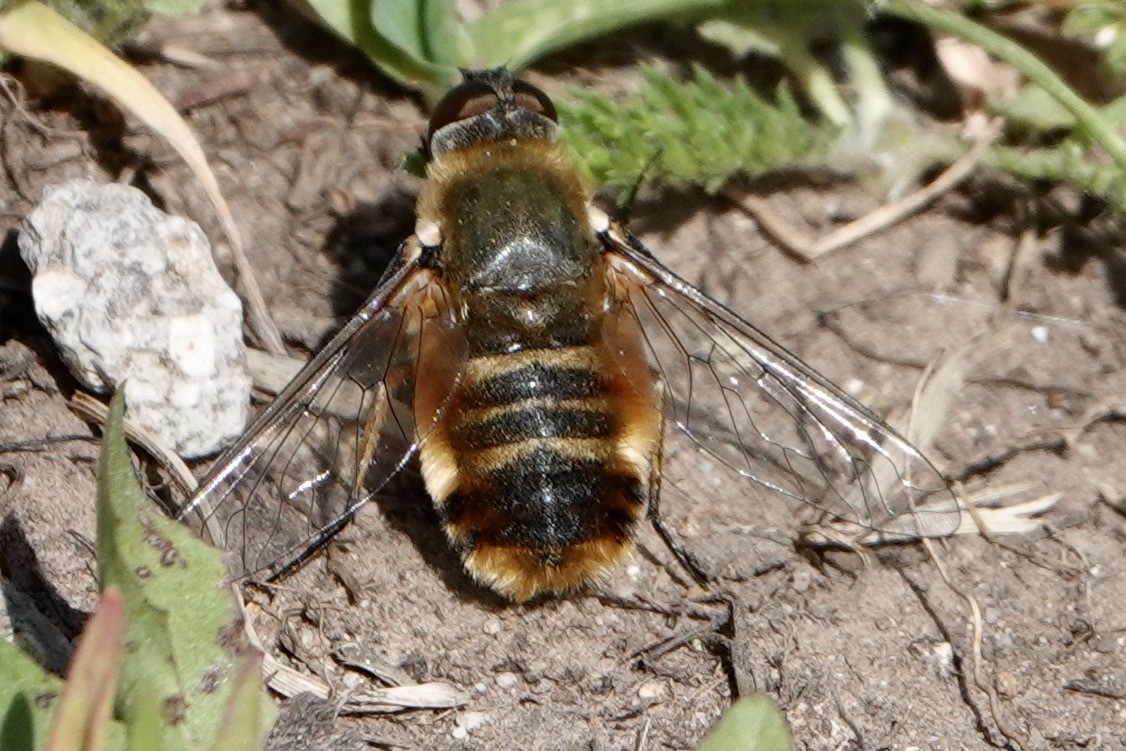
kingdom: Animalia
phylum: Arthropoda
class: Insecta
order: Diptera
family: Bombyliidae
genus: Villa
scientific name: Villa agrippina
